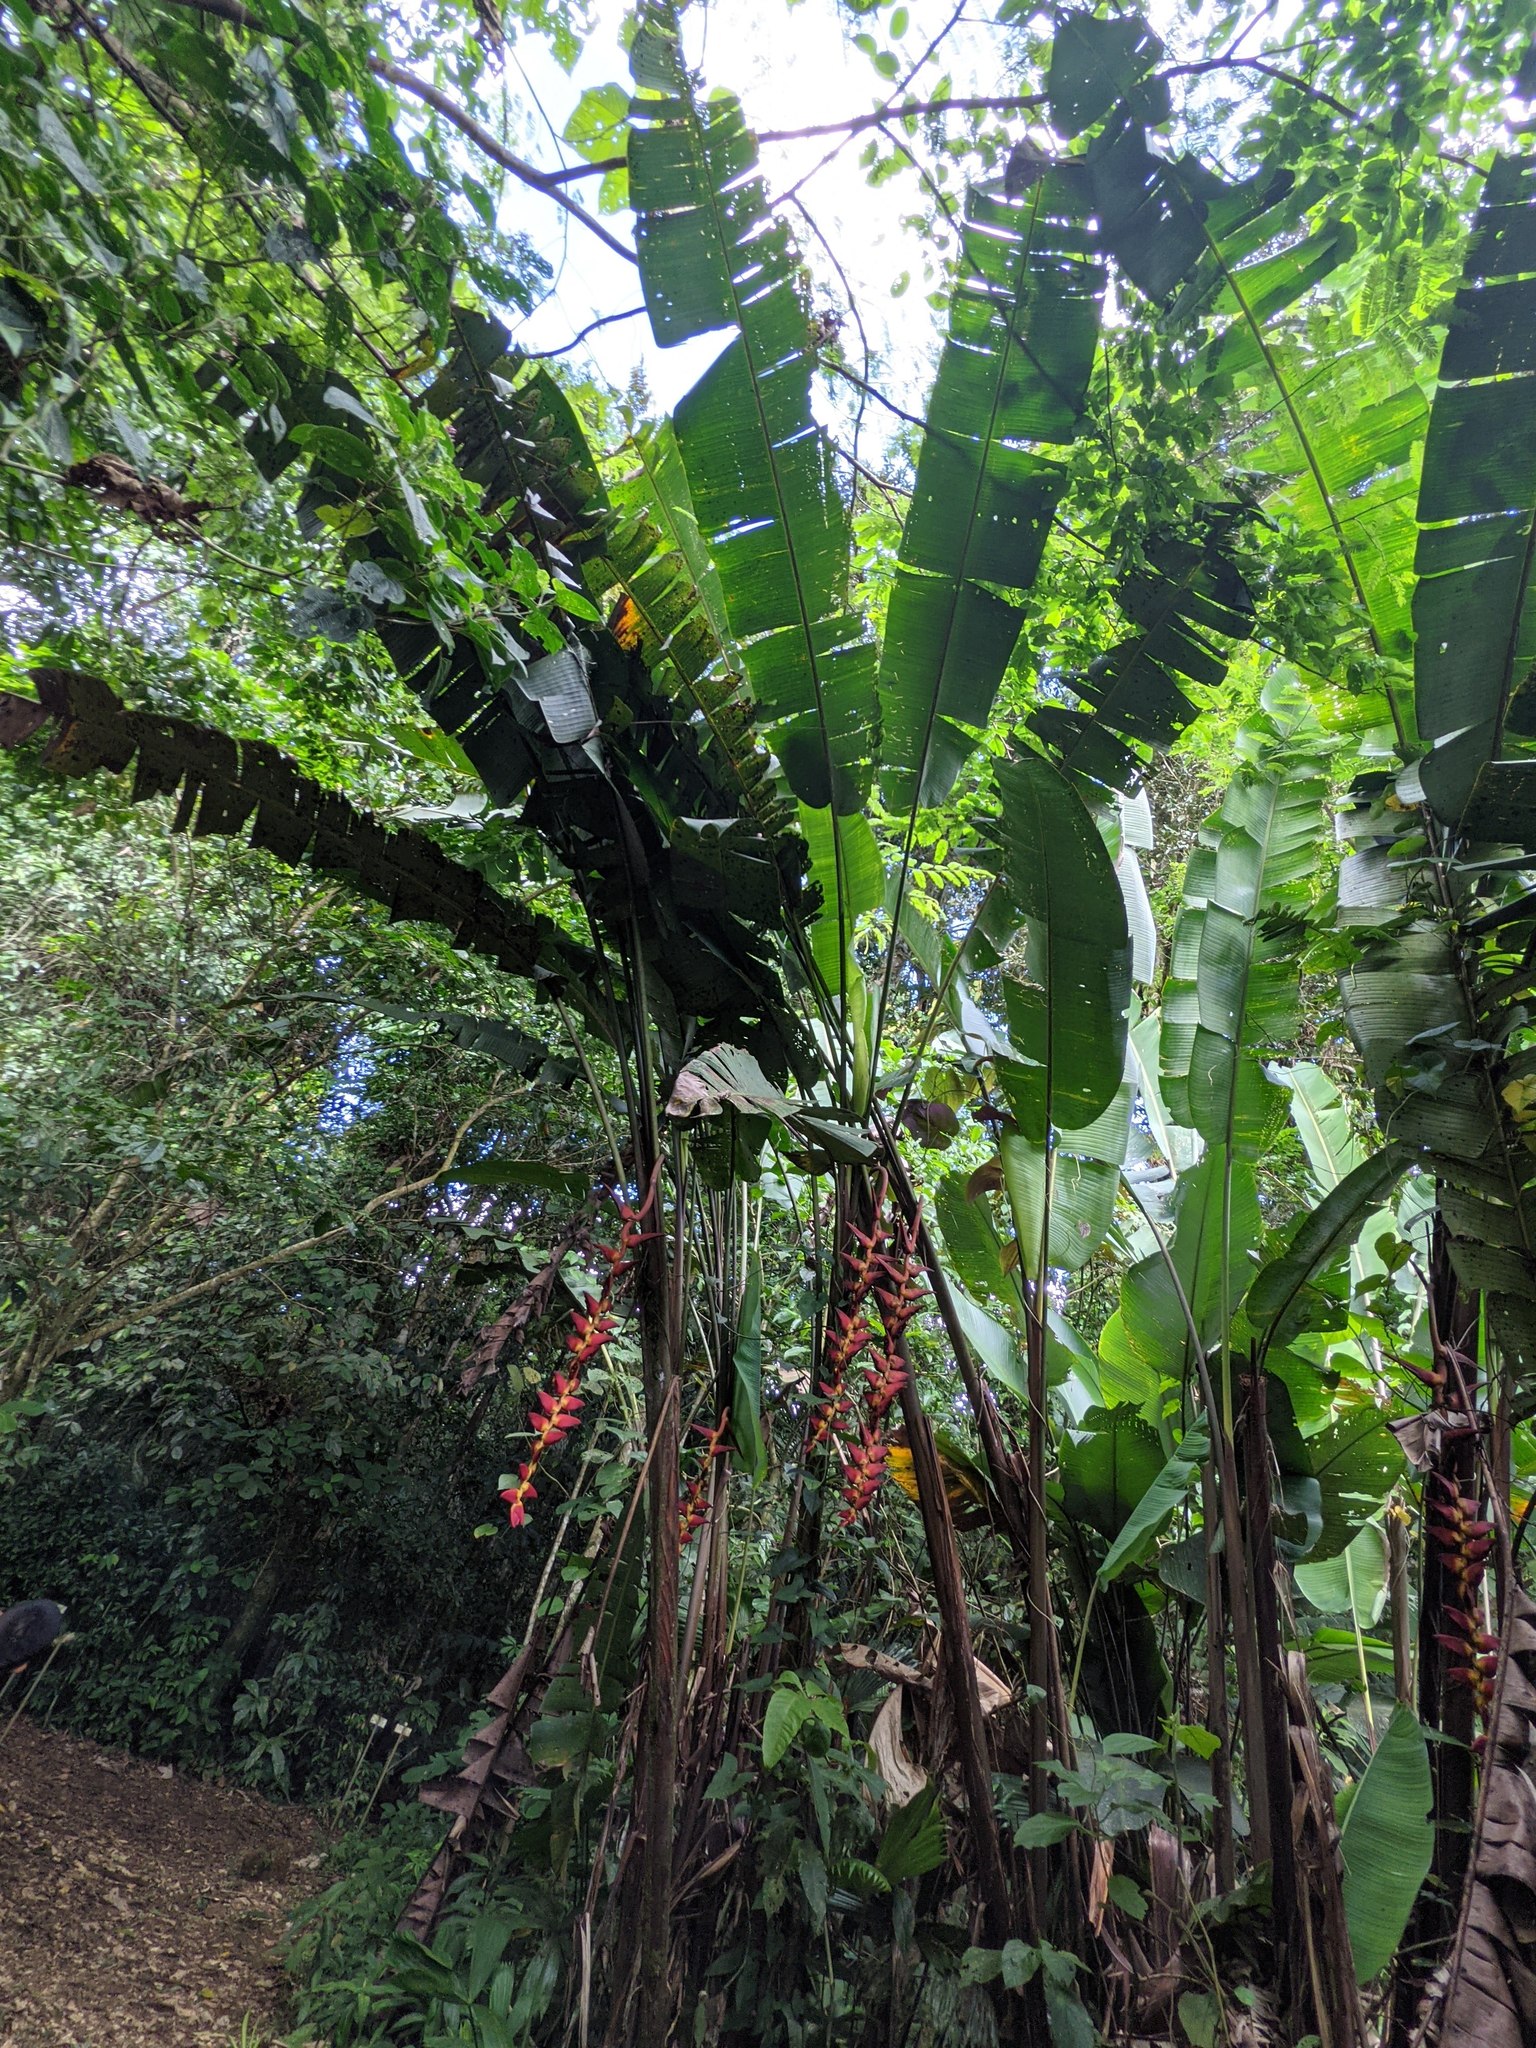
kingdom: Plantae
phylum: Tracheophyta
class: Liliopsida
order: Zingiberales
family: Heliconiaceae
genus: Heliconia
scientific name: Heliconia pogonantha
